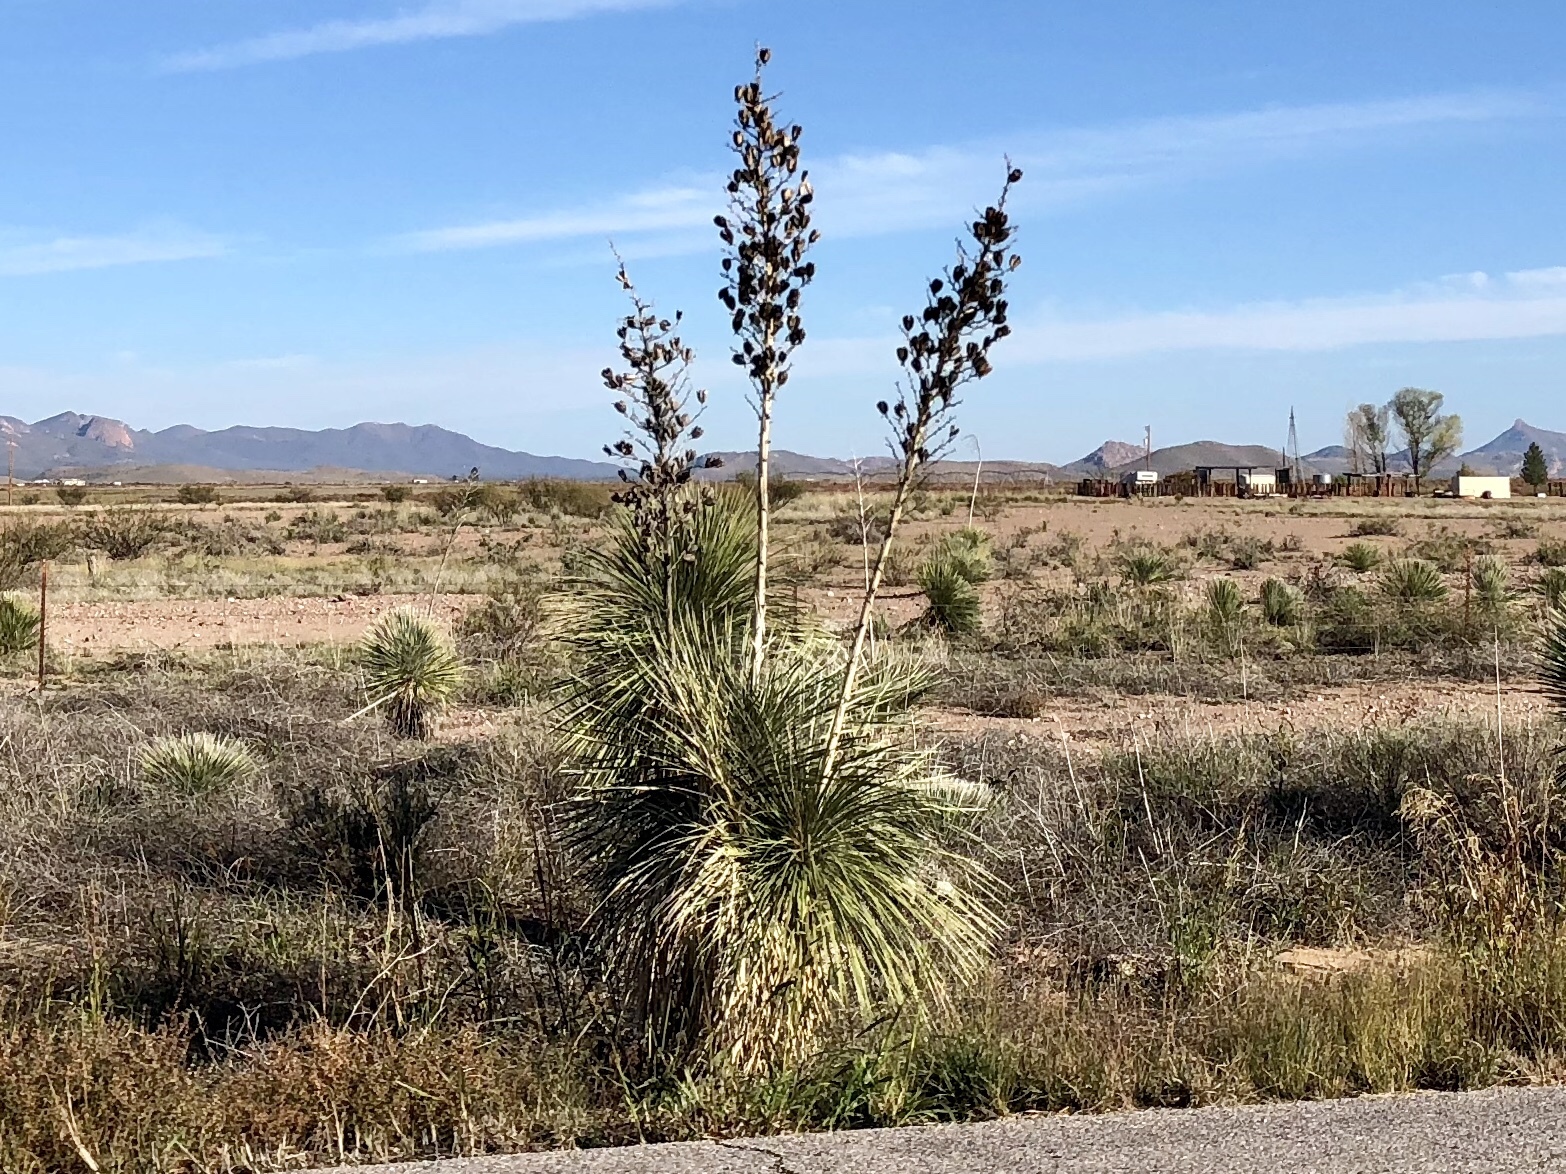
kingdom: Plantae
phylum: Tracheophyta
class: Liliopsida
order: Asparagales
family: Asparagaceae
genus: Yucca
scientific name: Yucca elata
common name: Palmella
